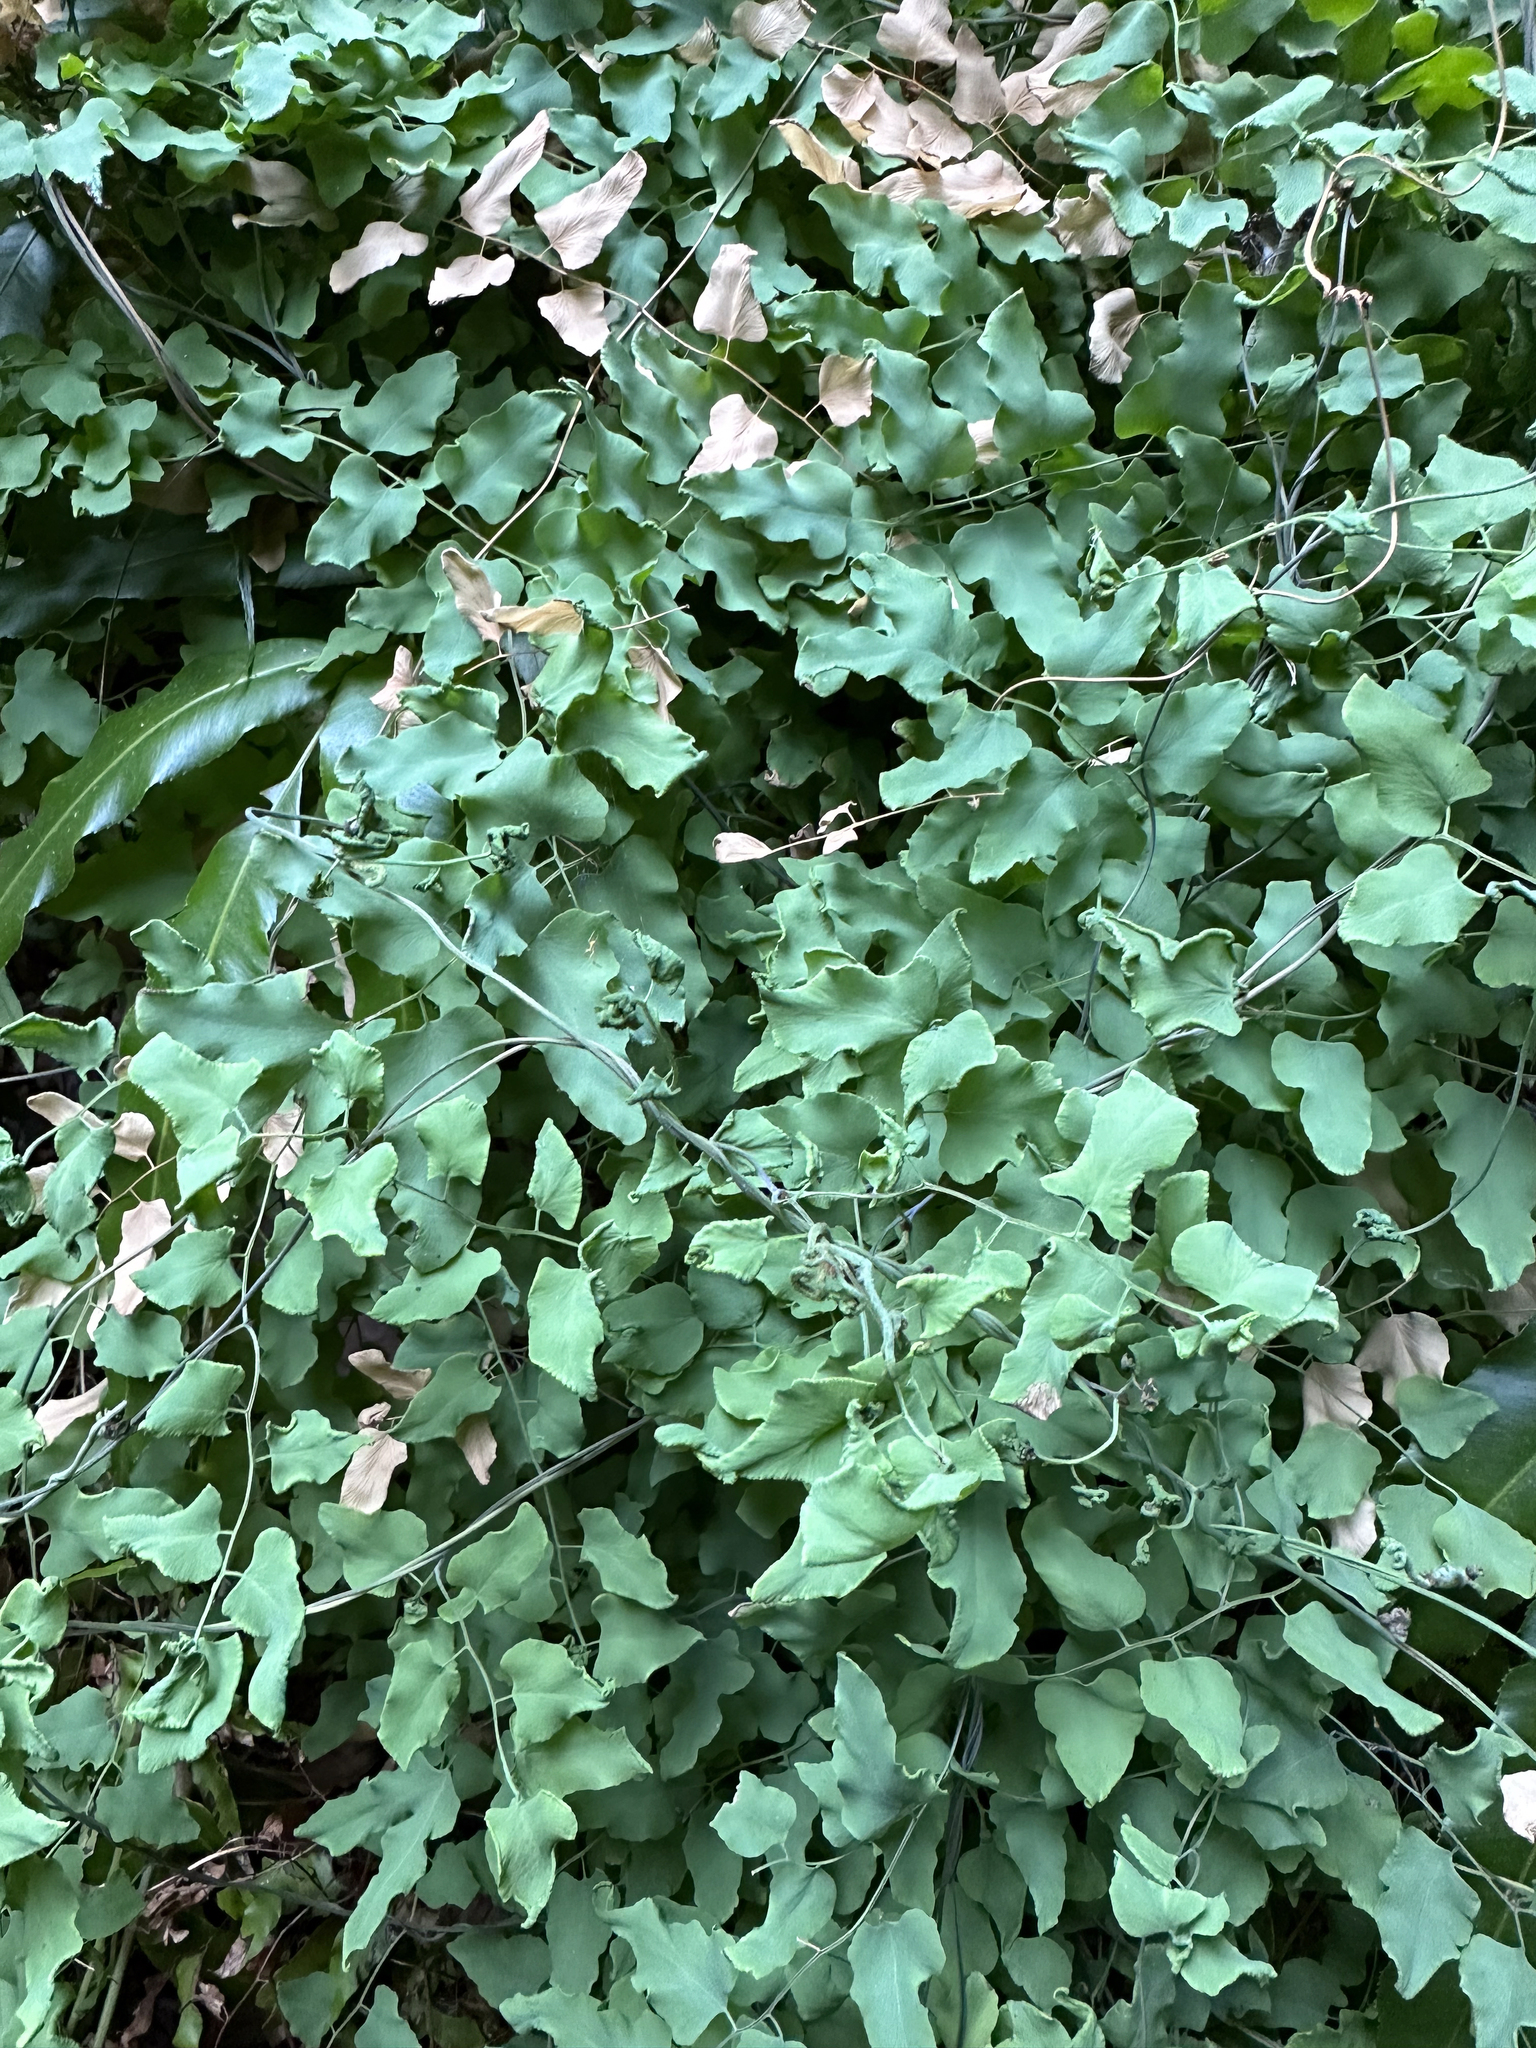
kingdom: Plantae
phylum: Tracheophyta
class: Polypodiopsida
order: Schizaeales
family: Lygodiaceae
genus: Lygodium
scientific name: Lygodium microphyllum
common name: Small-leaf climbing fern
